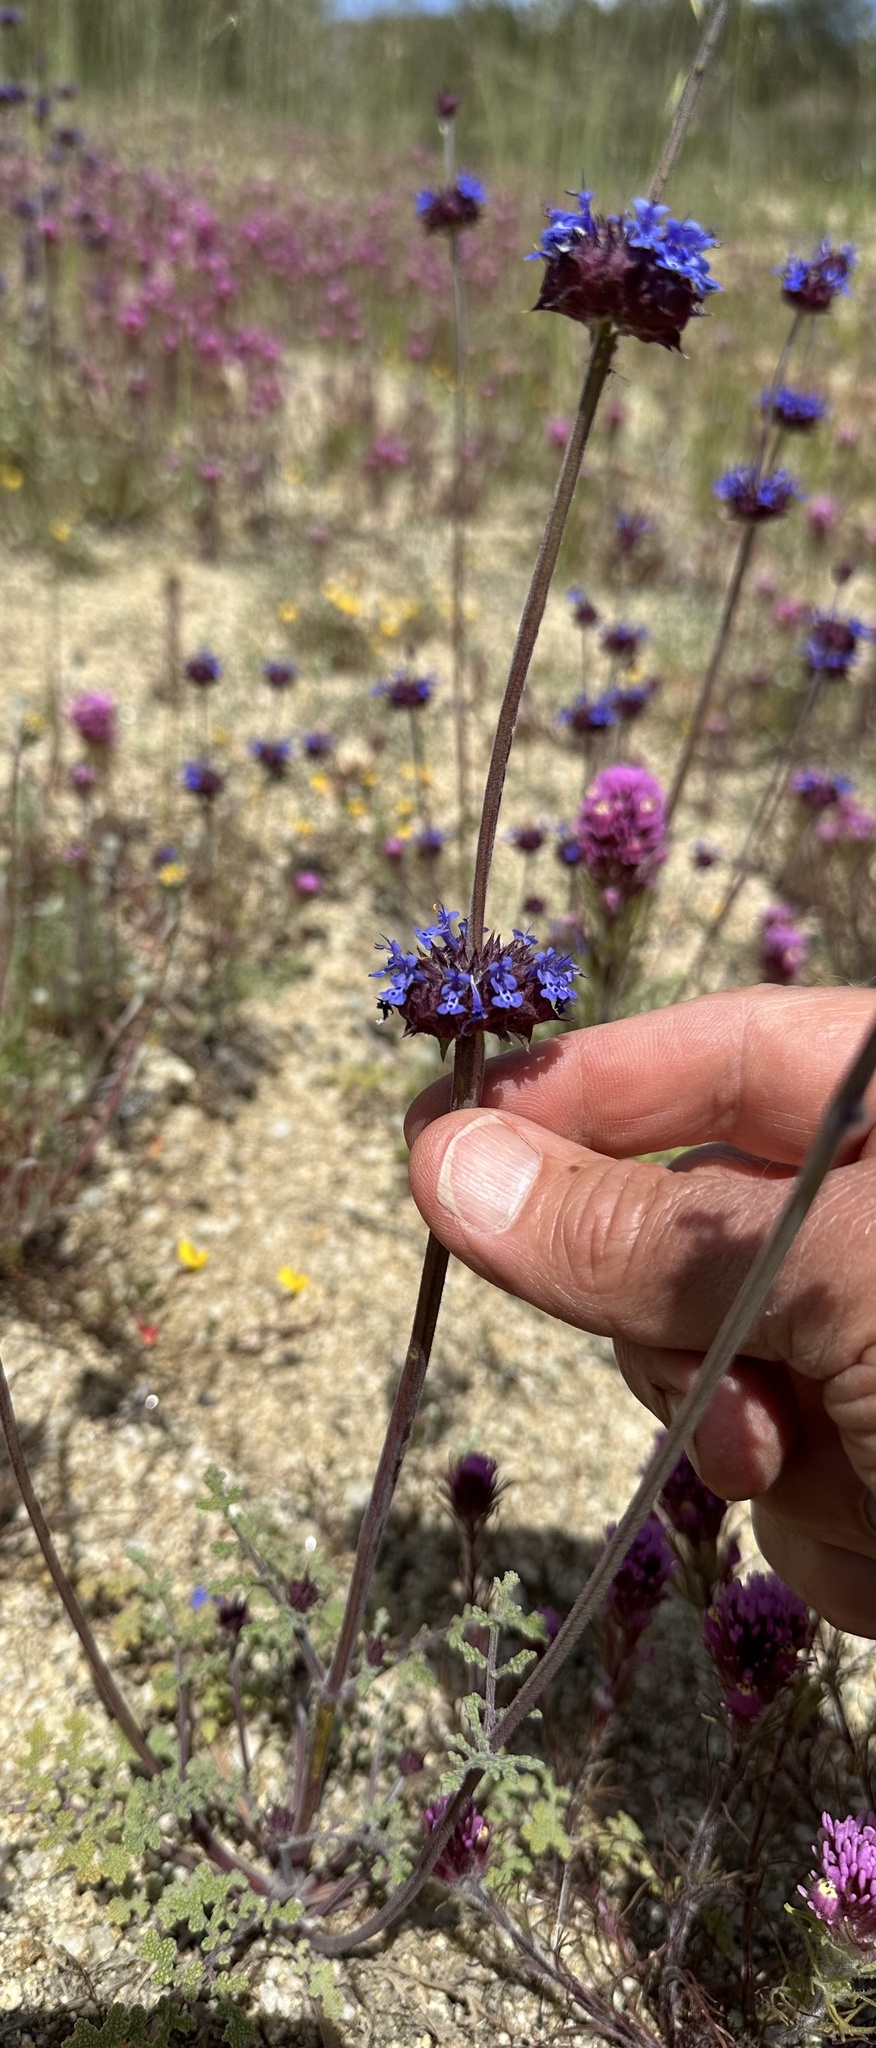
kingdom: Plantae
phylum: Tracheophyta
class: Magnoliopsida
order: Lamiales
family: Lamiaceae
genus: Salvia
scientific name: Salvia columbariae
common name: Chia
